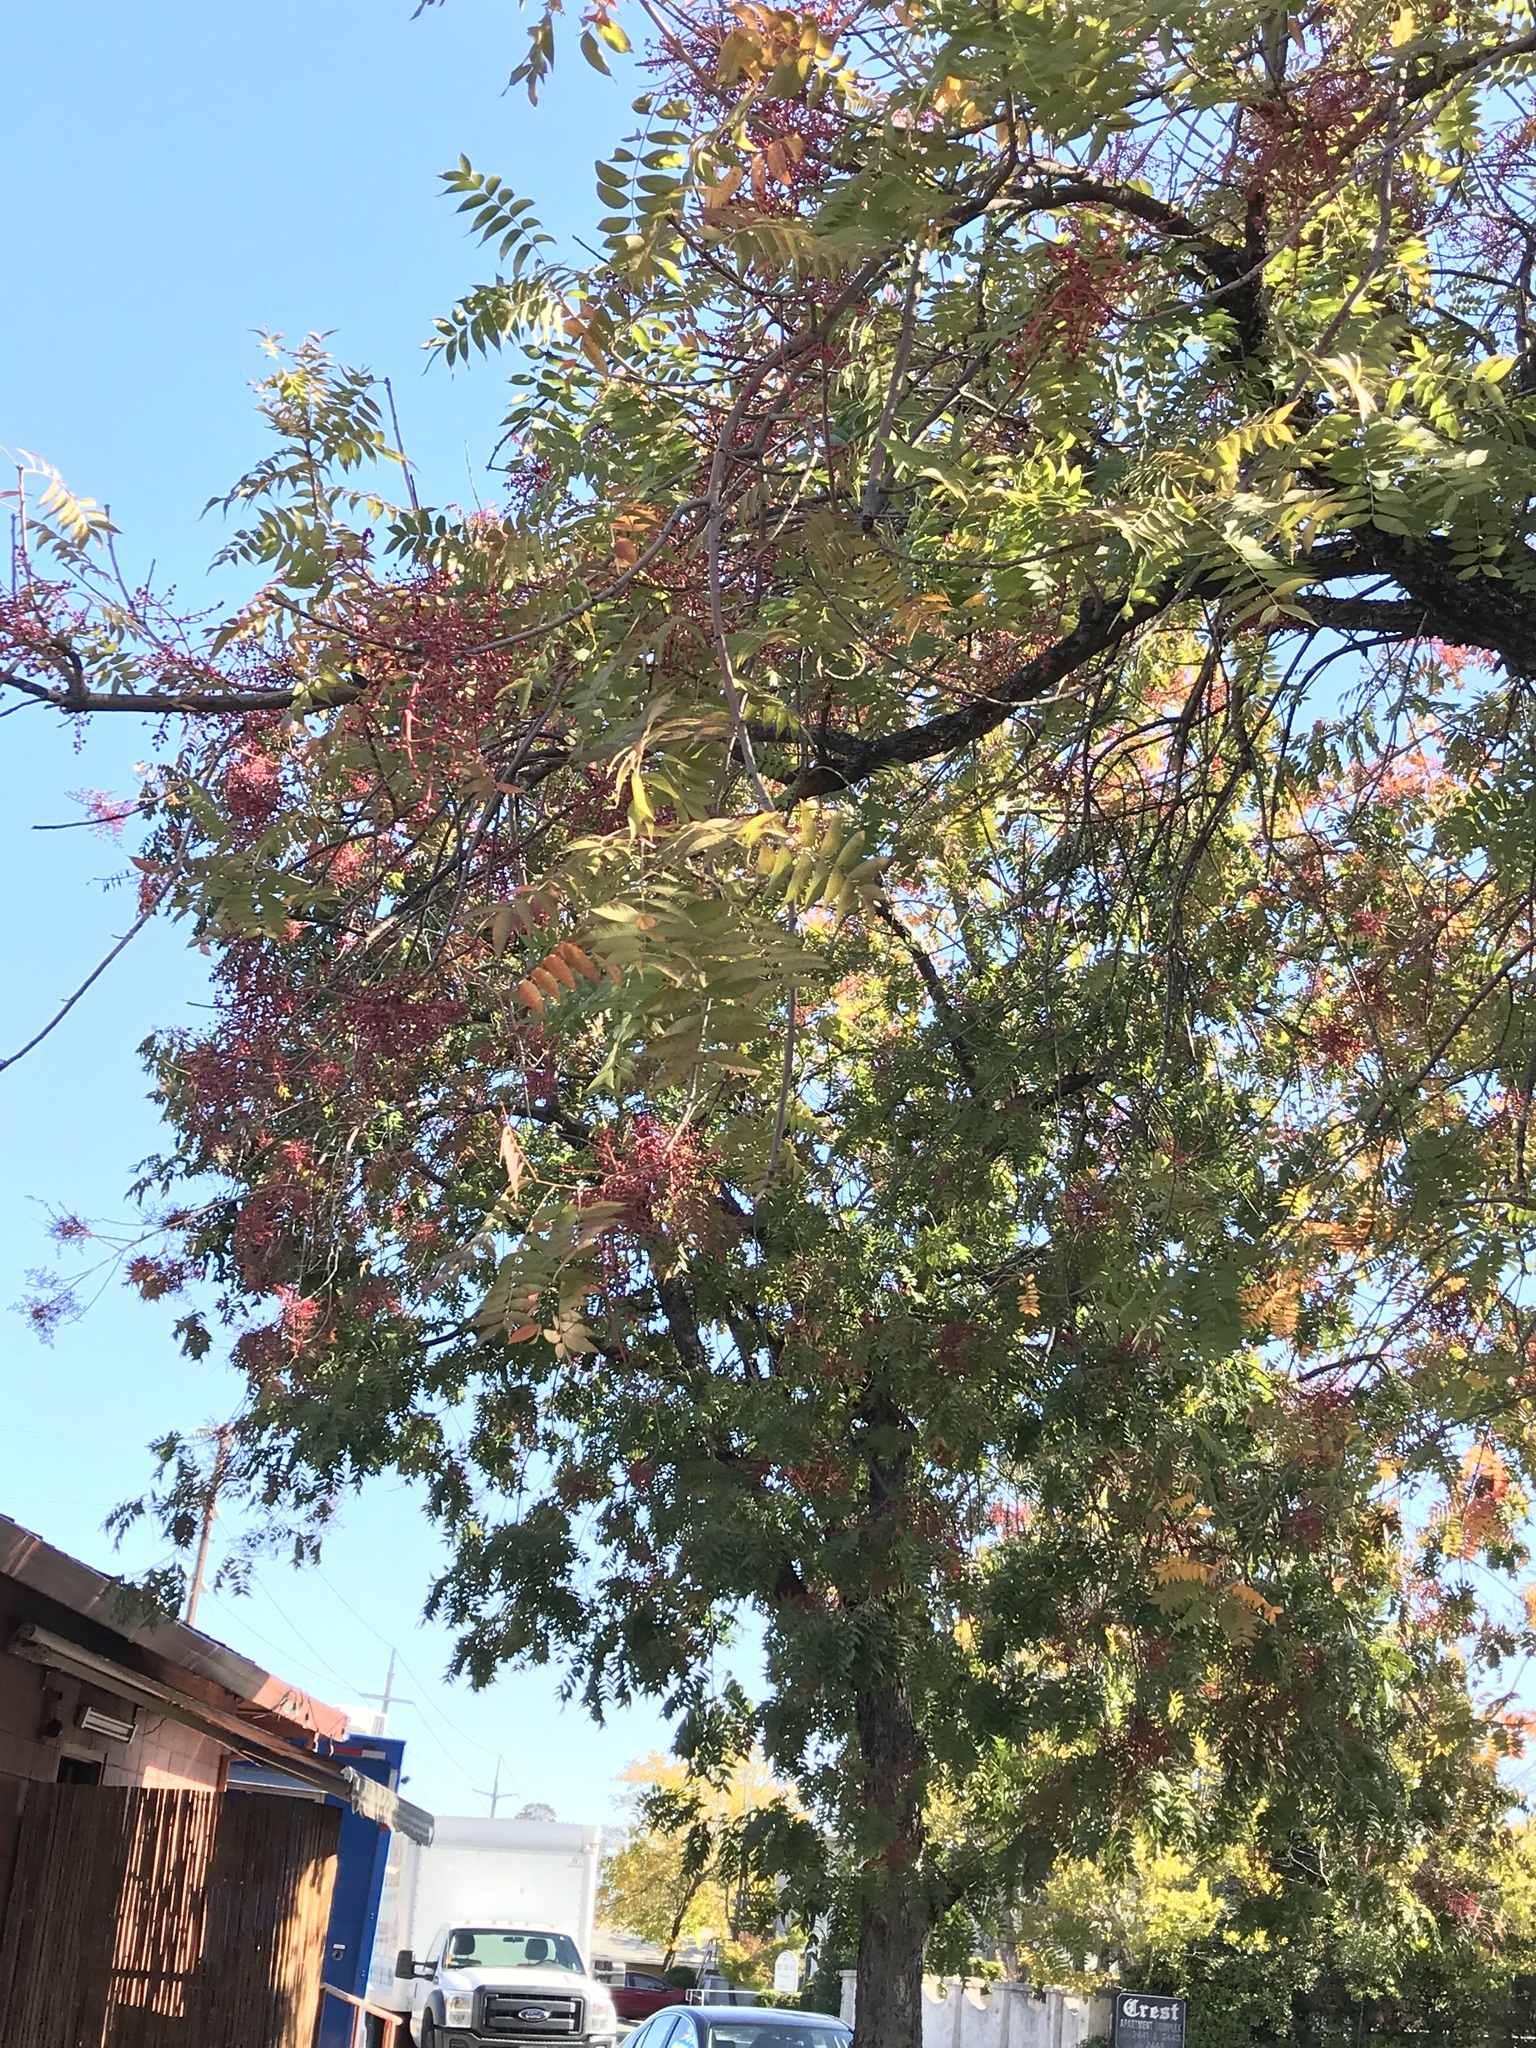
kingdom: Plantae
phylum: Tracheophyta
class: Magnoliopsida
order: Sapindales
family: Anacardiaceae
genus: Pistacia
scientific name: Pistacia chinensis
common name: Chinese pistache
